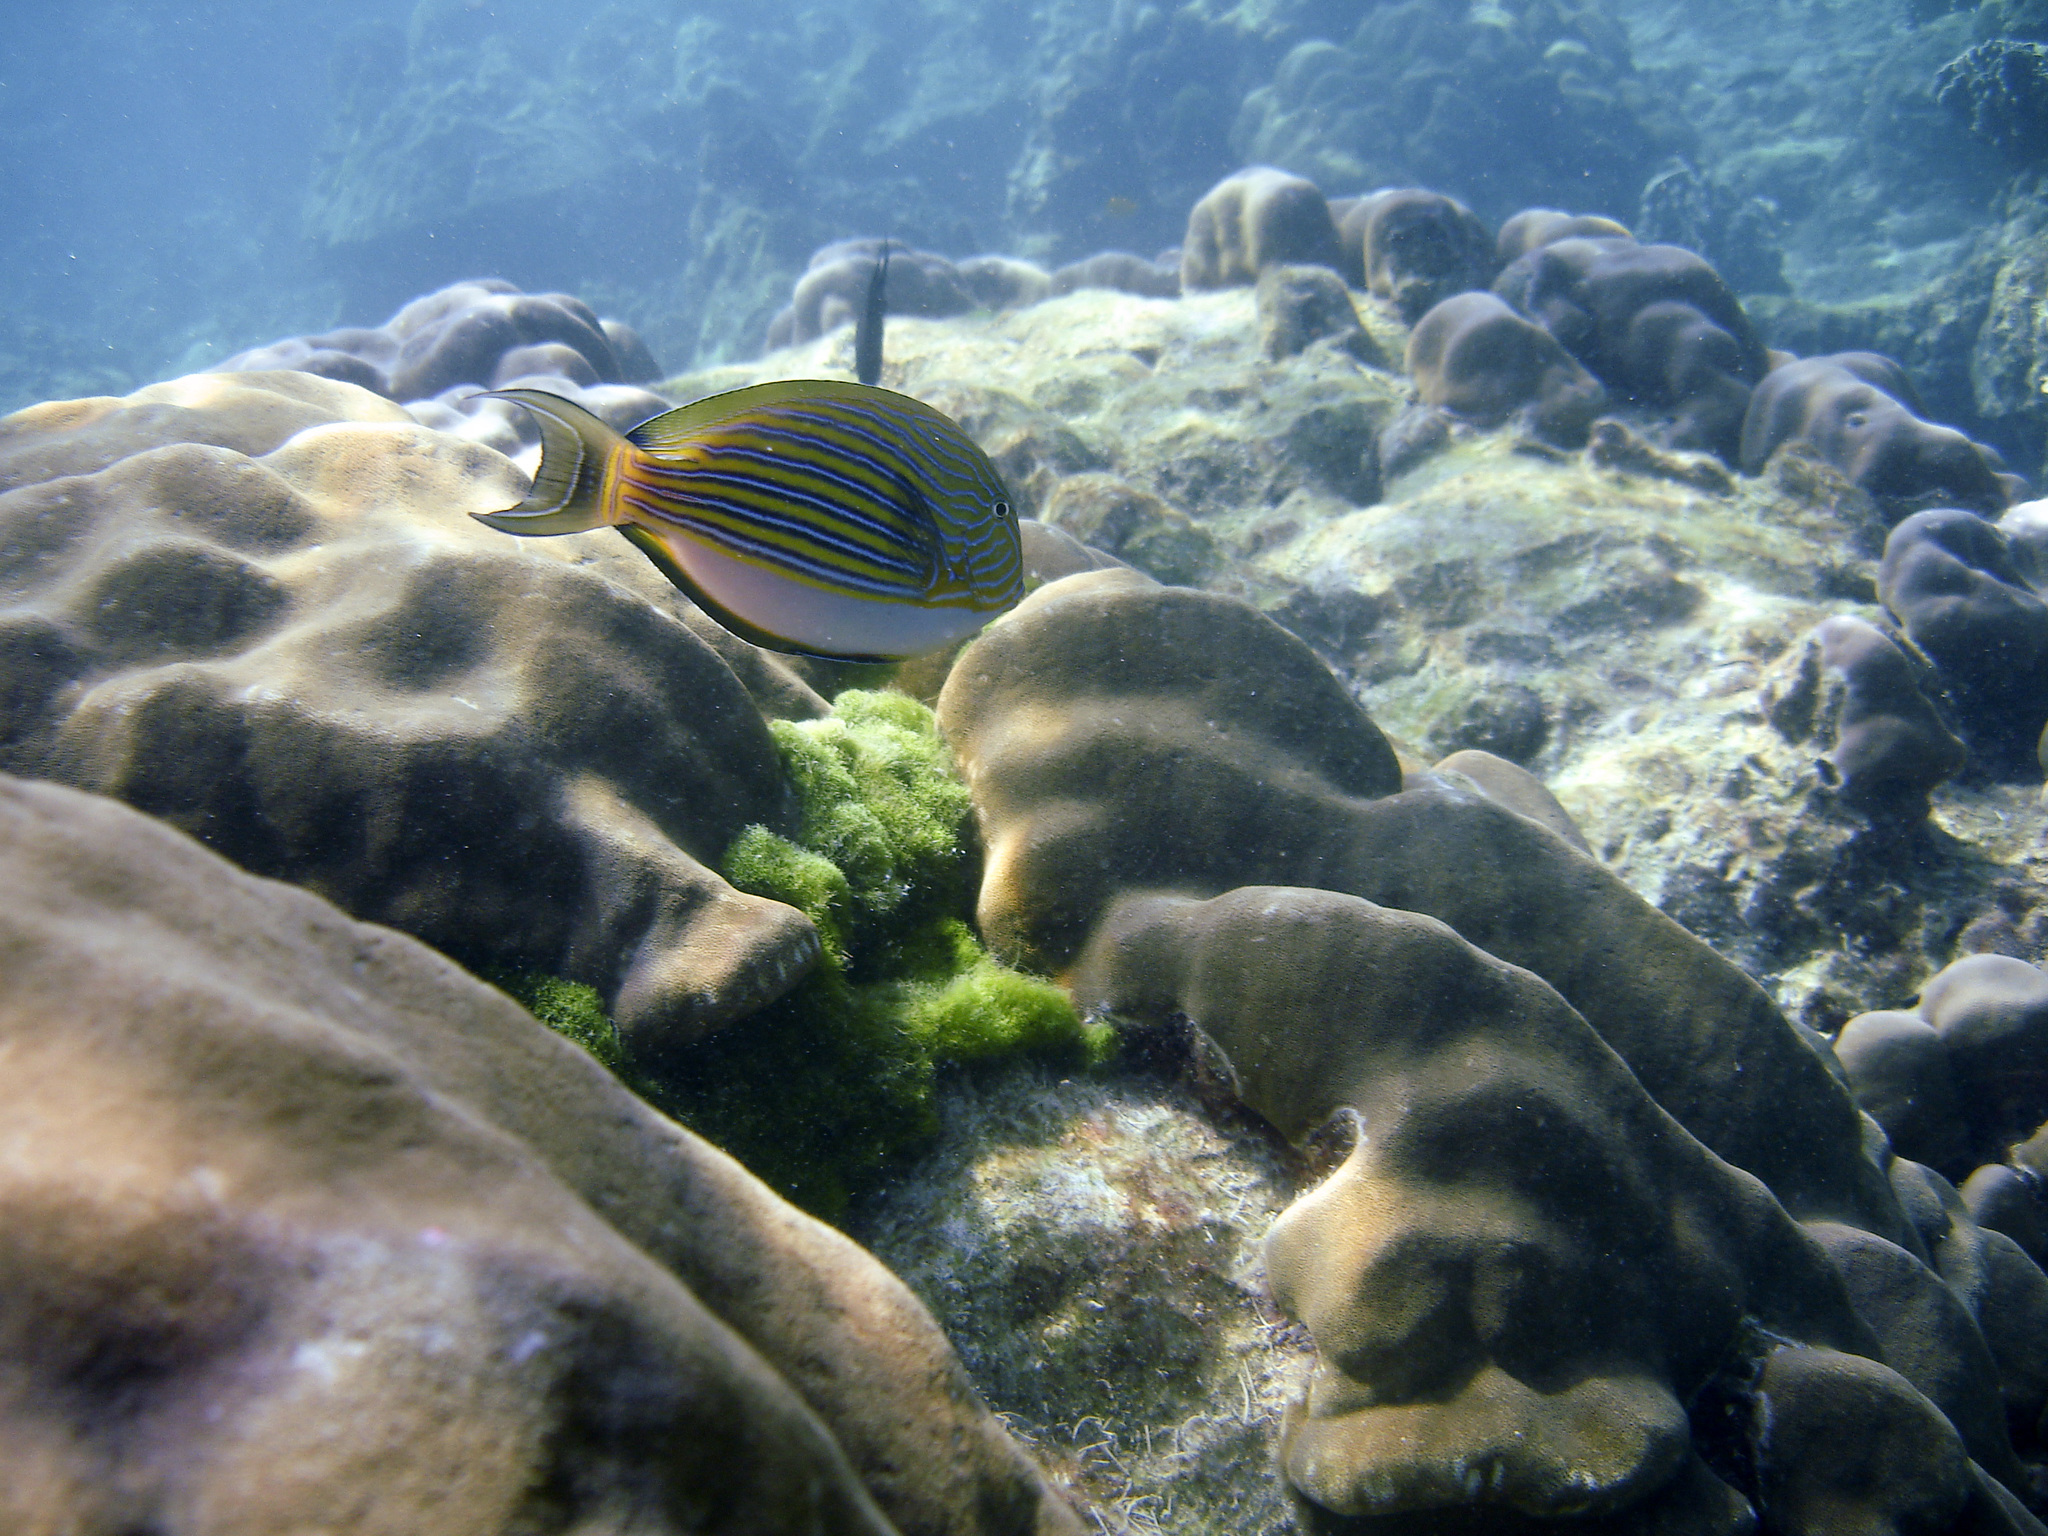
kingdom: Animalia
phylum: Chordata
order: Perciformes
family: Acanthuridae
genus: Acanthurus
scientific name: Acanthurus lineatus
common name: Striped surgeonfish
